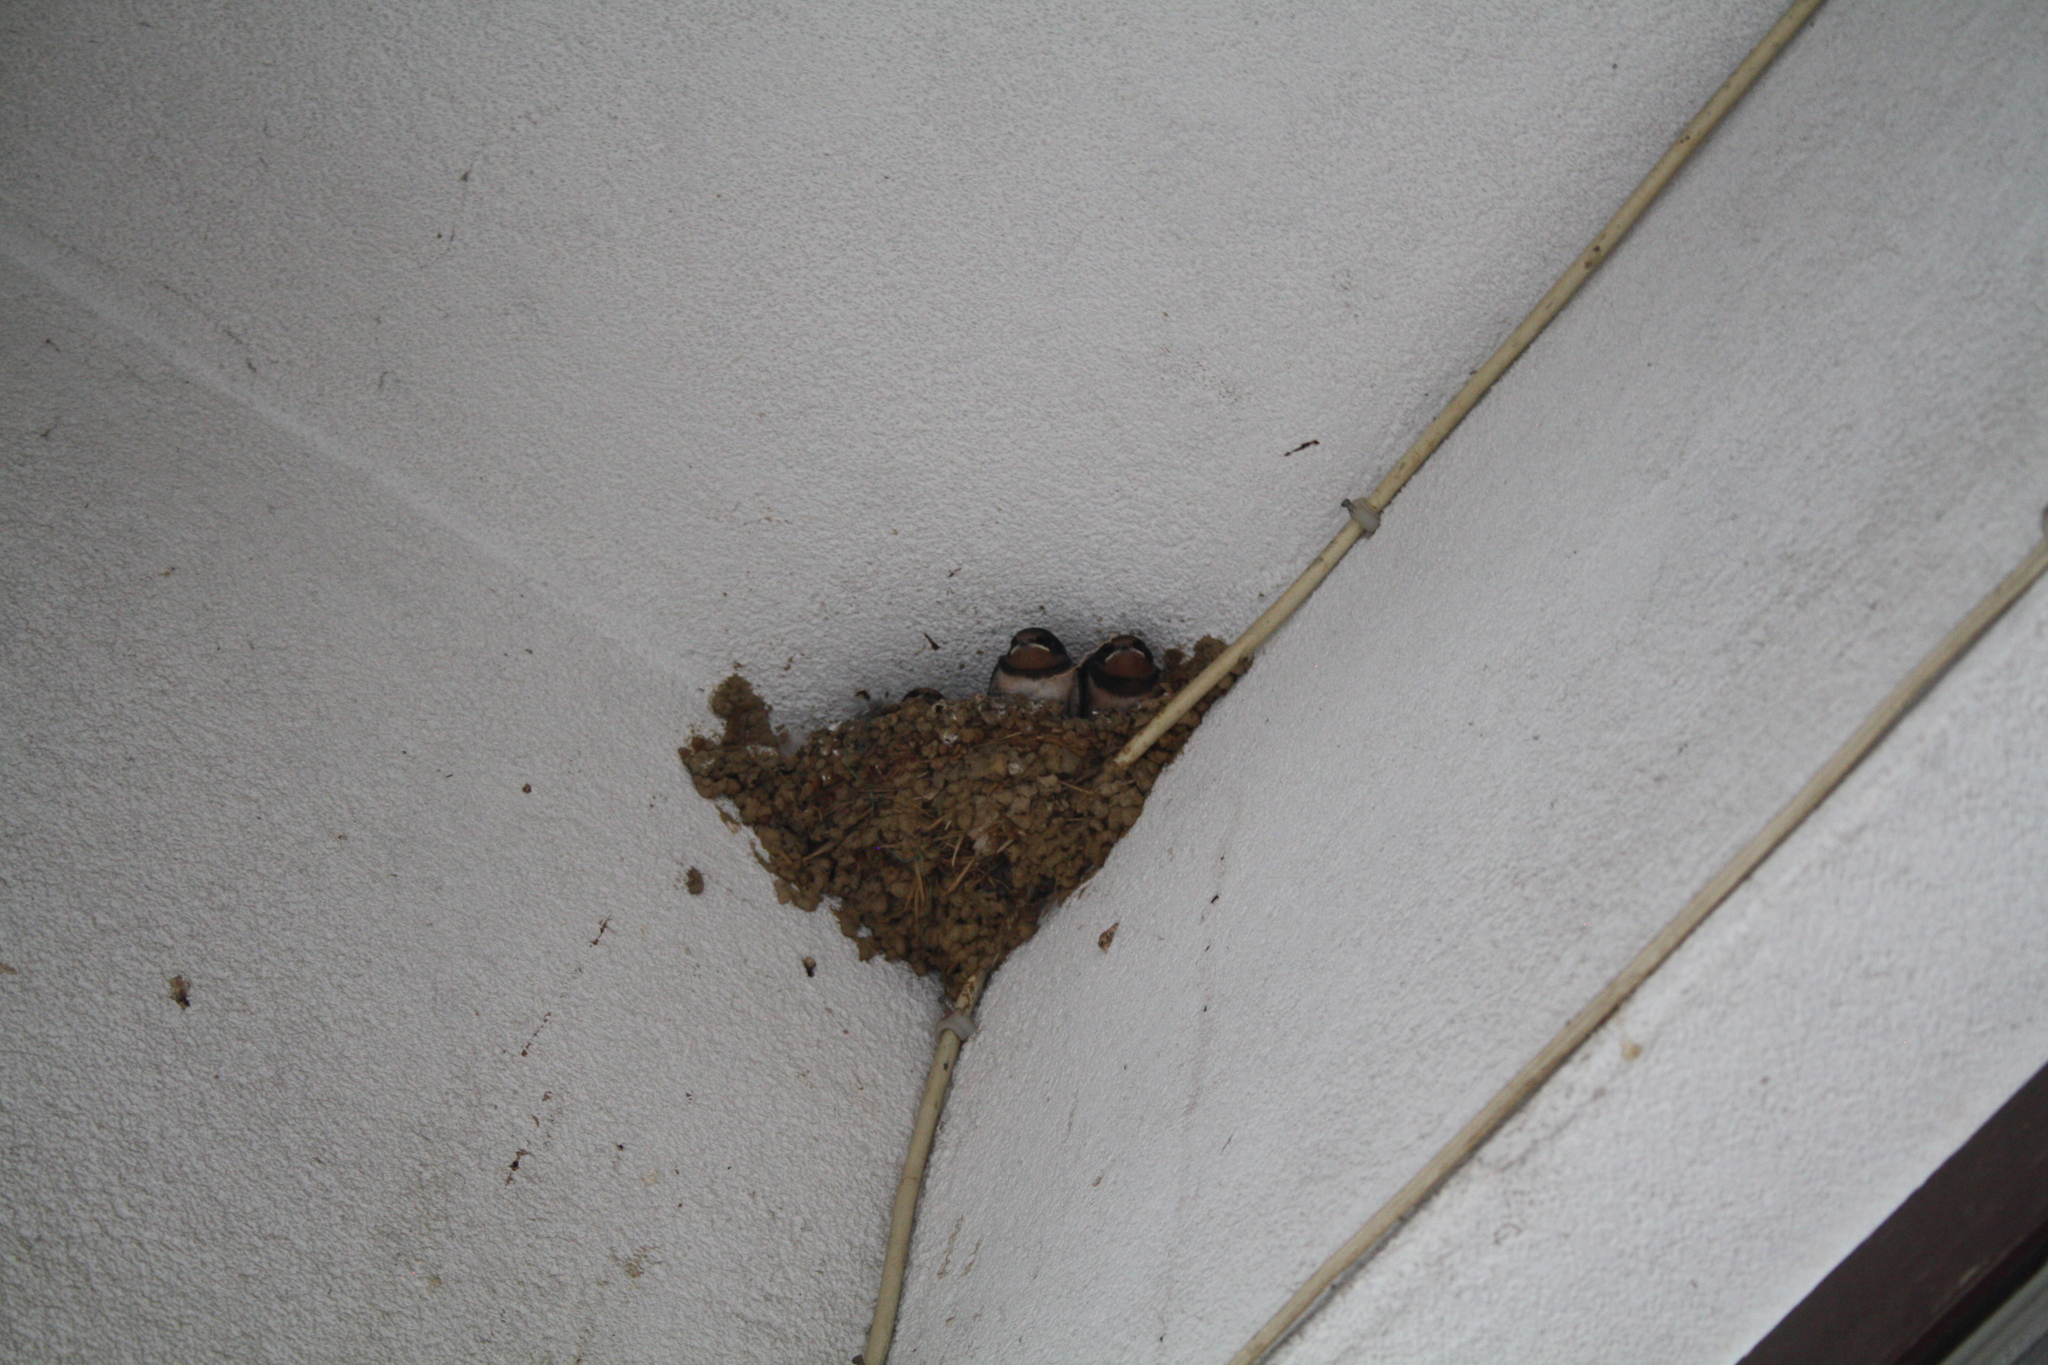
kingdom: Animalia
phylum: Chordata
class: Aves
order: Passeriformes
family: Hirundinidae
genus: Hirundo
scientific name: Hirundo rustica
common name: Barn swallow
